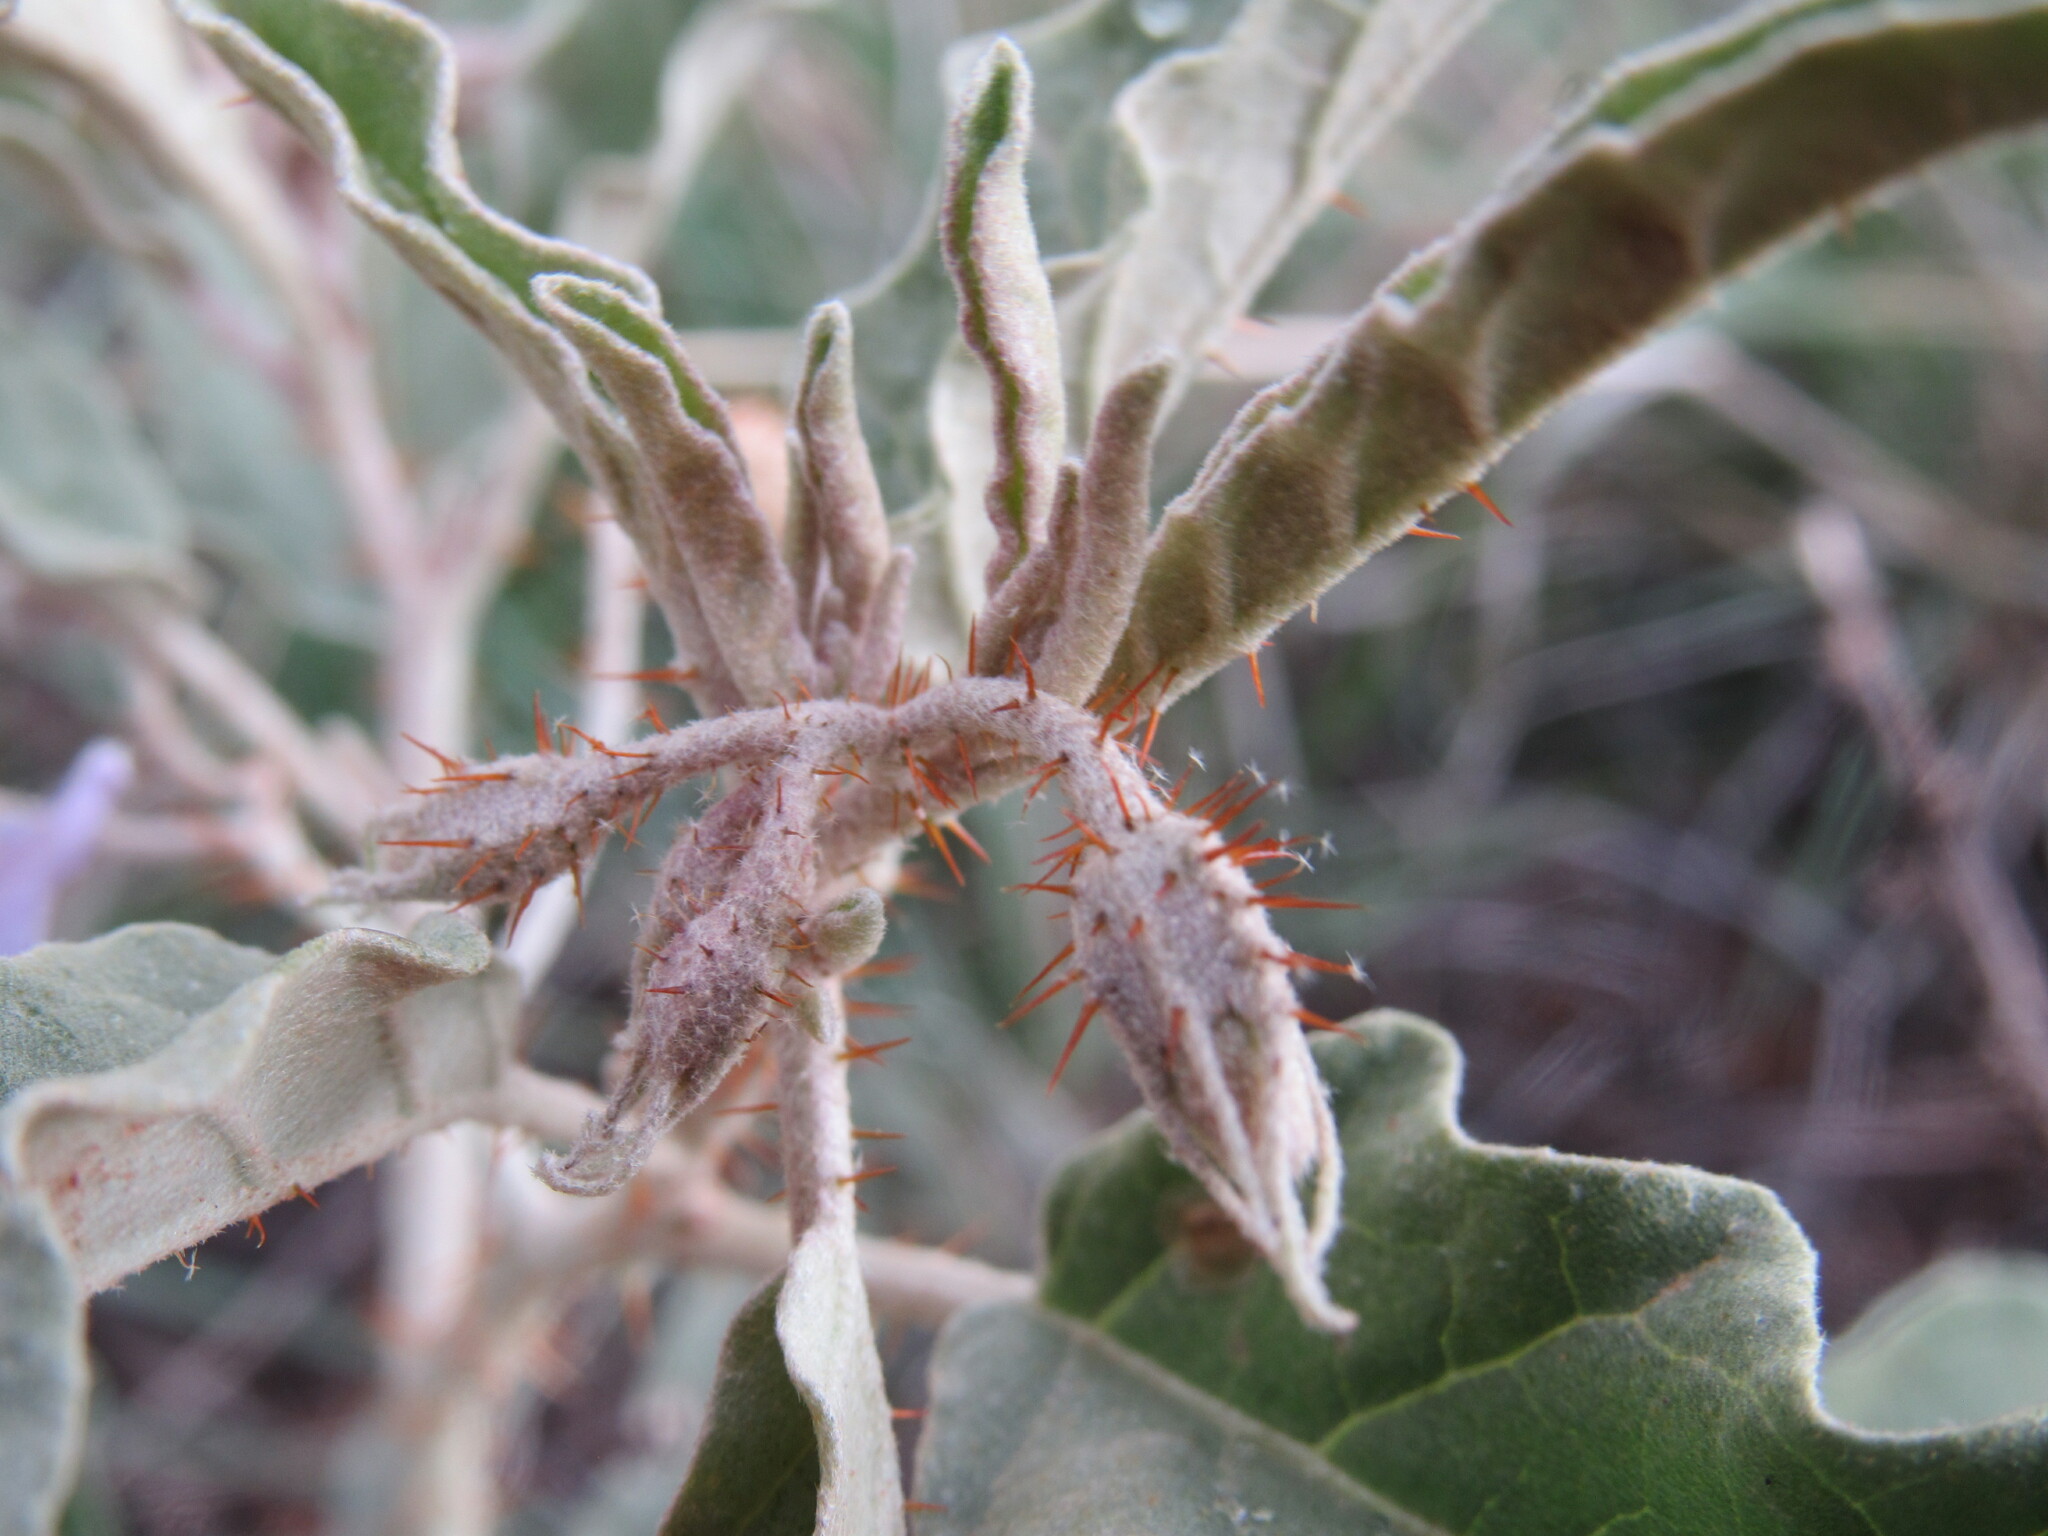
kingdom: Plantae
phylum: Tracheophyta
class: Magnoliopsida
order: Solanales
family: Solanaceae
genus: Solanum
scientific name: Solanum elaeagnifolium
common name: Silverleaf nightshade
